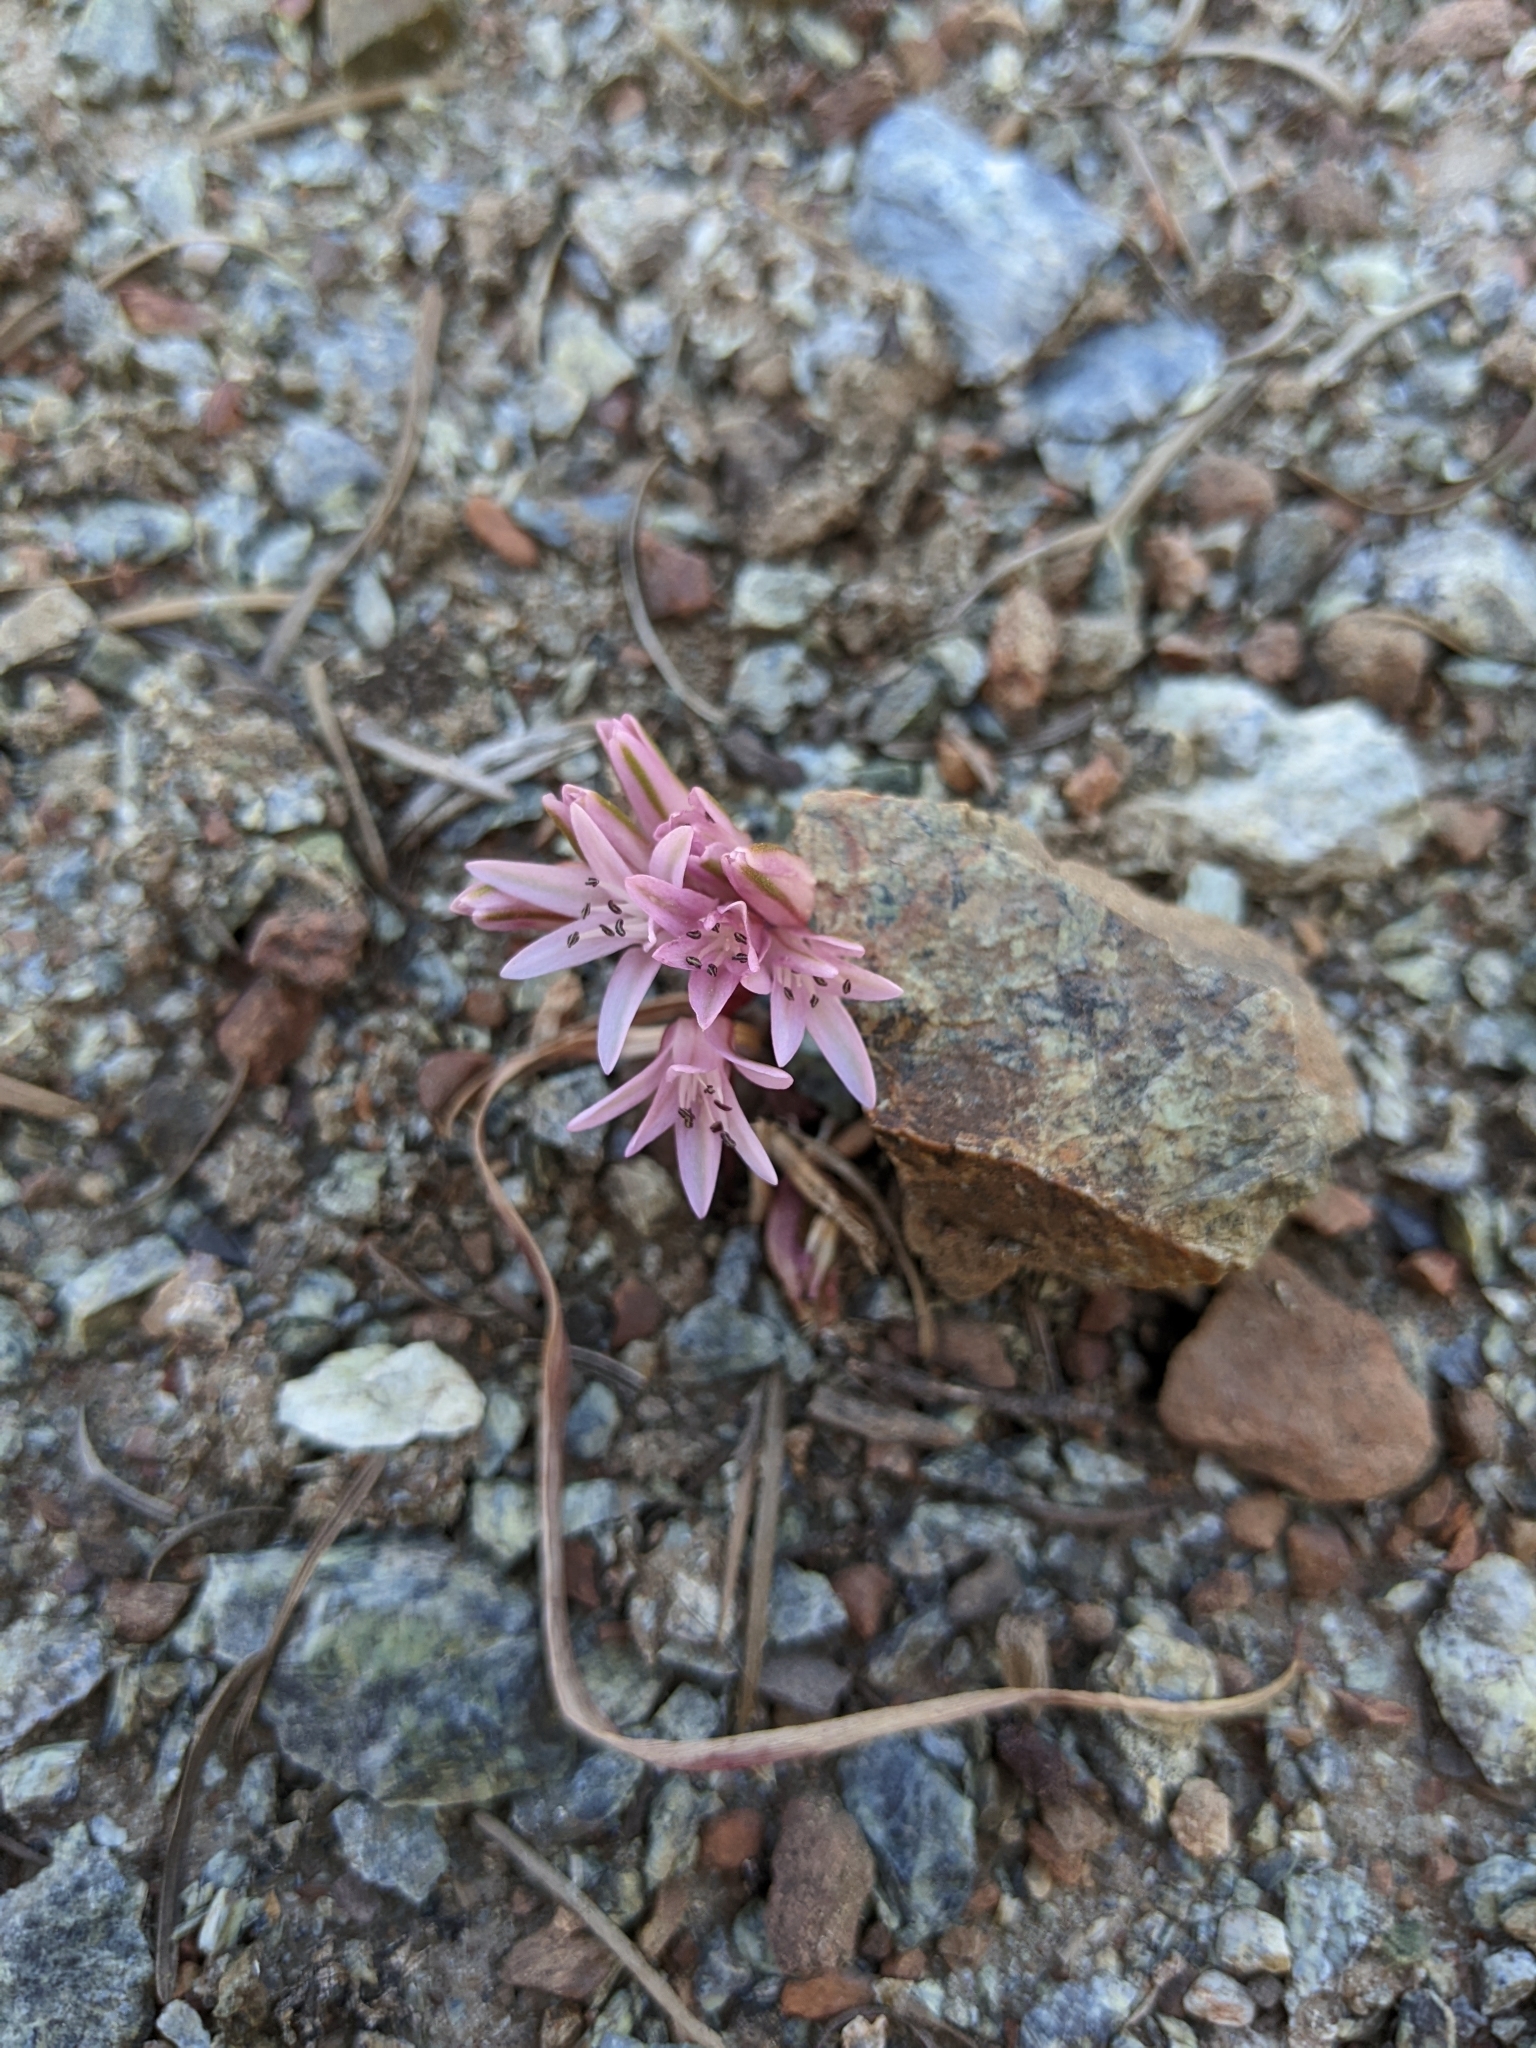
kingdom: Plantae
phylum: Tracheophyta
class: Liliopsida
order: Asparagales
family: Amaryllidaceae
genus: Allium
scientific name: Allium cratericola
